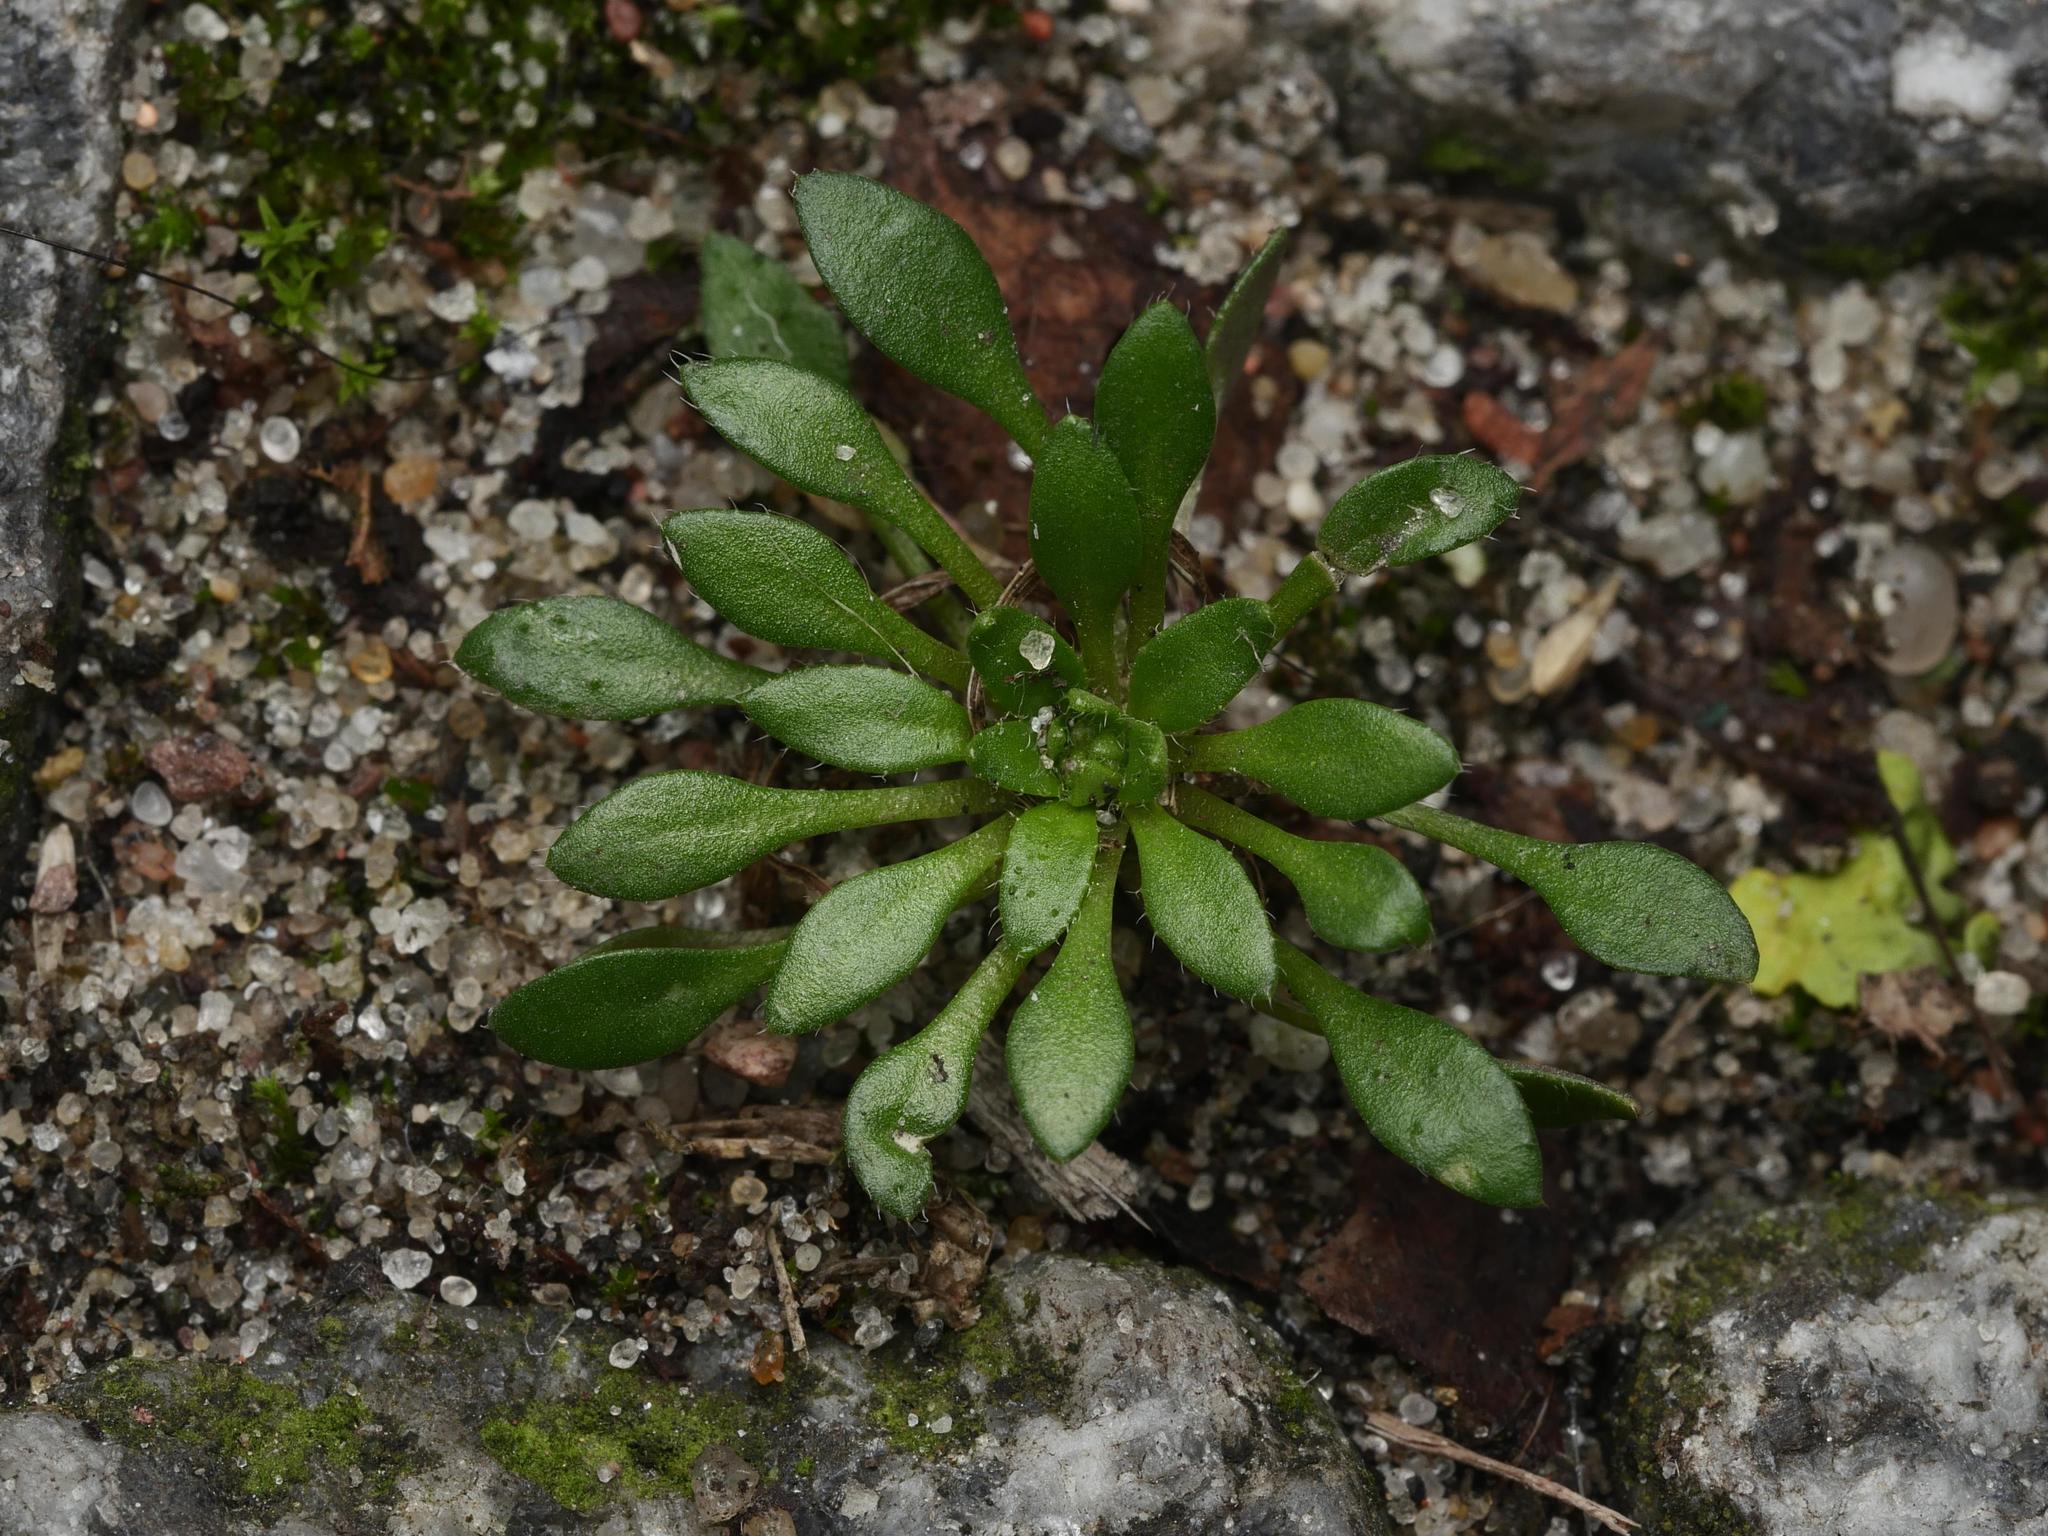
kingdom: Plantae
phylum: Tracheophyta
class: Magnoliopsida
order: Brassicales
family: Brassicaceae
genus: Draba
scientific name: Draba verna
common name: Spring draba
